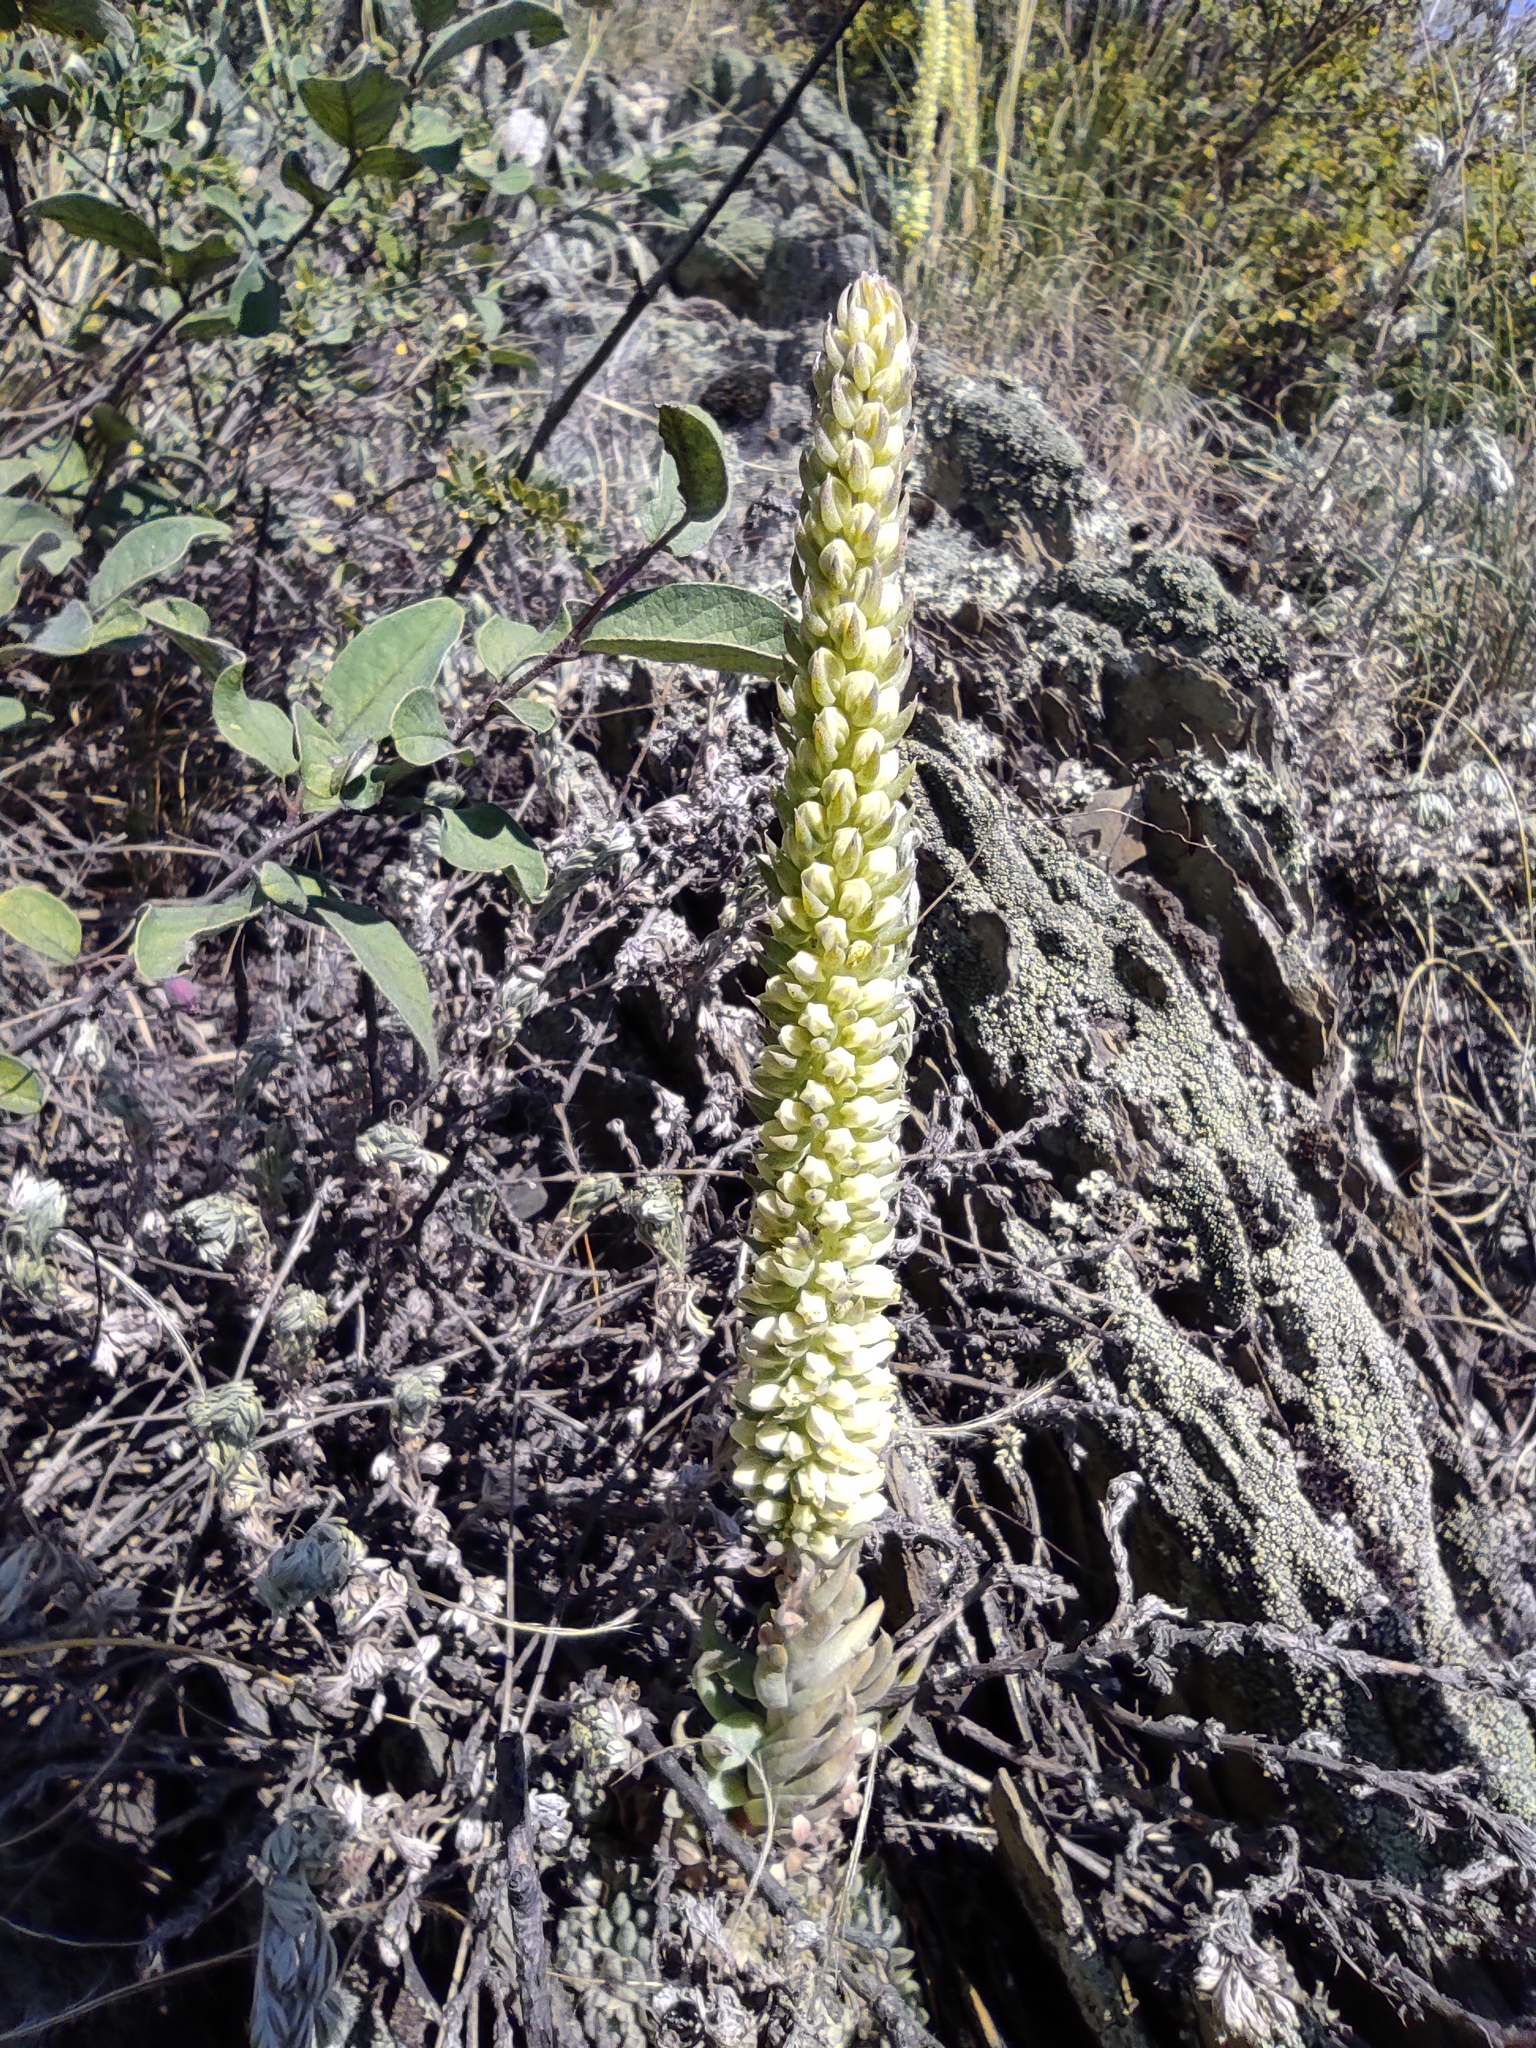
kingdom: Plantae
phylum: Tracheophyta
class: Magnoliopsida
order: Saxifragales
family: Crassulaceae
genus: Orostachys
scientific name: Orostachys spinosa
